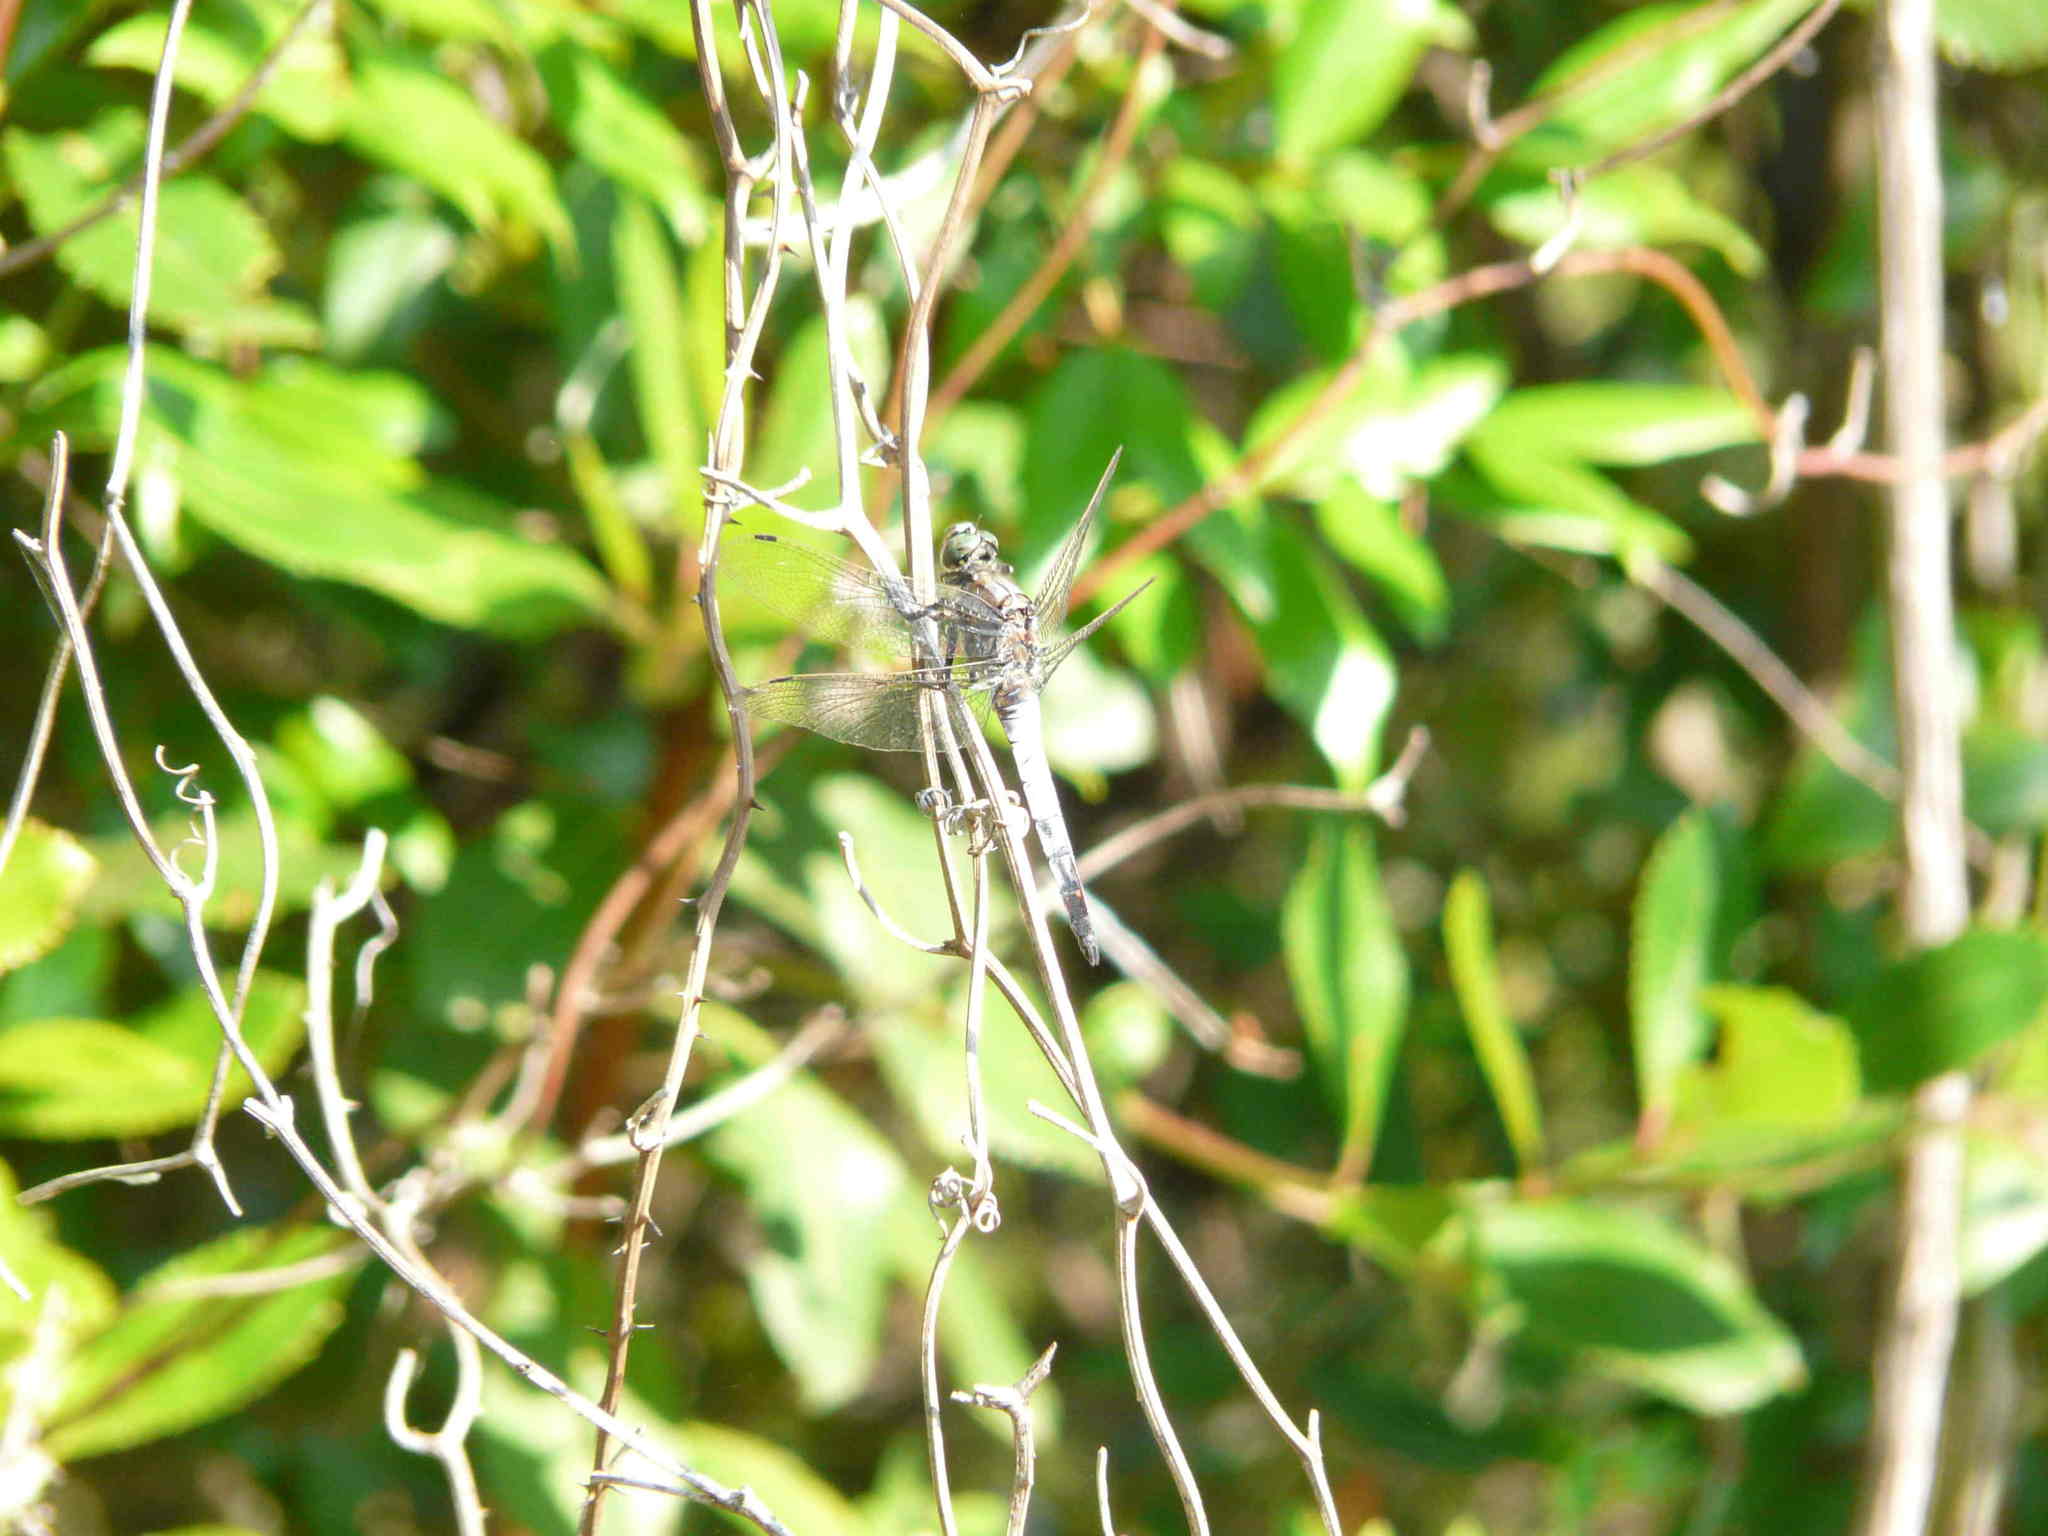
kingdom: Animalia
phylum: Arthropoda
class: Insecta
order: Odonata
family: Libellulidae
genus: Orthetrum
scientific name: Orthetrum cancellatum
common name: Black-tailed skimmer
